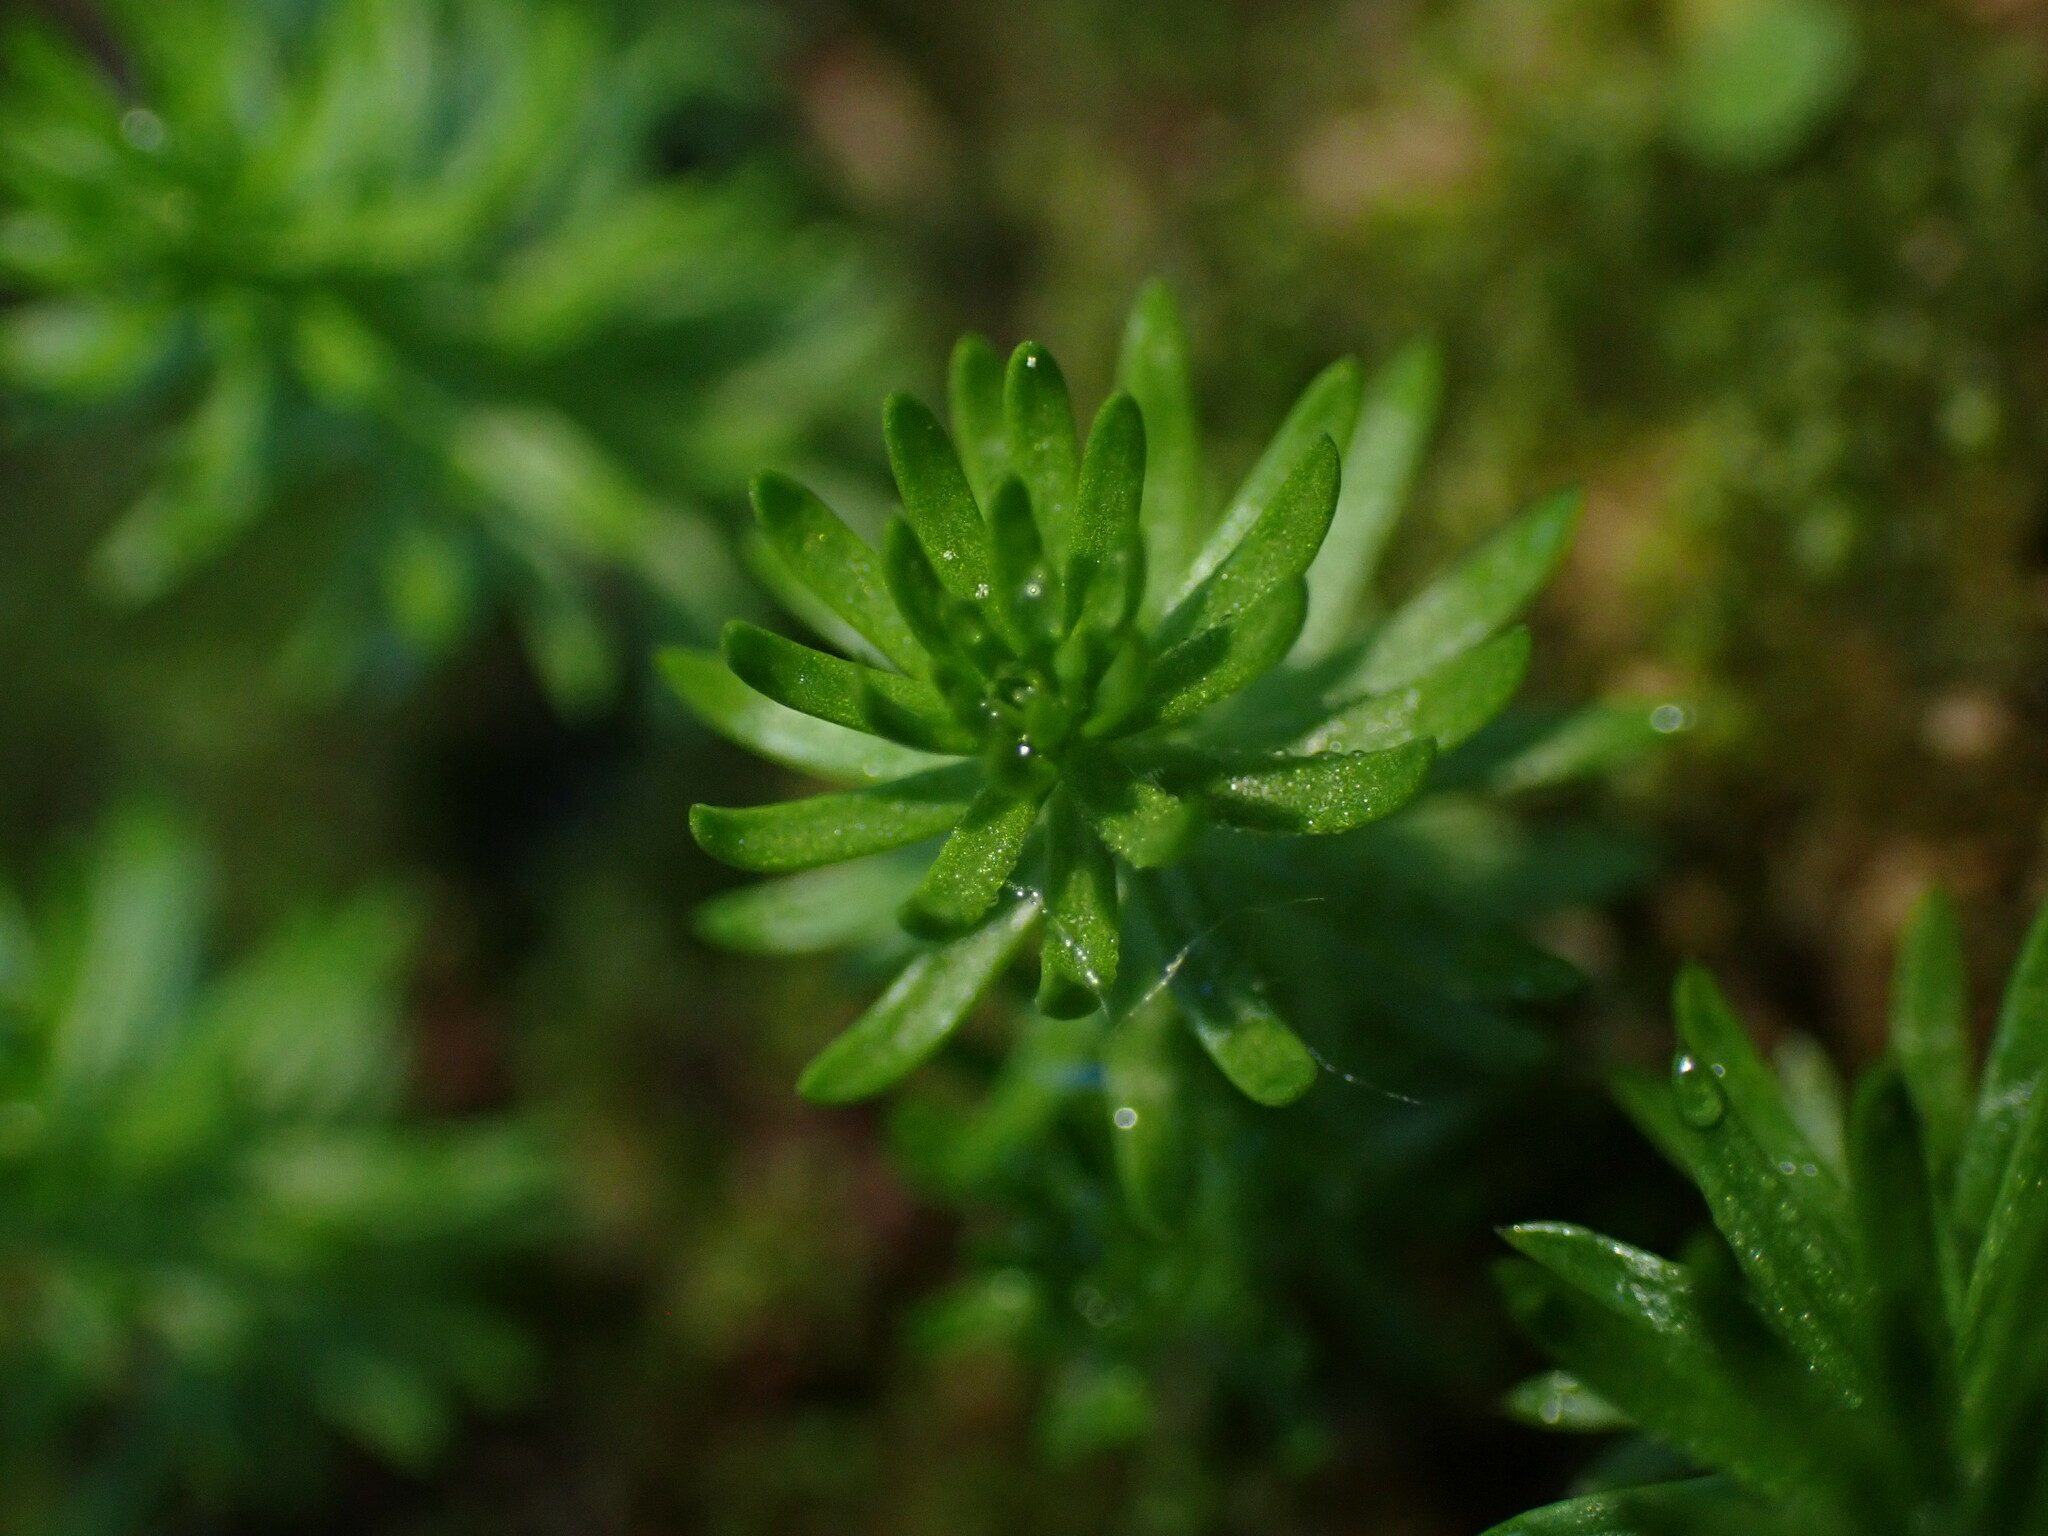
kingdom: Plantae
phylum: Tracheophyta
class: Magnoliopsida
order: Lamiales
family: Plantaginaceae
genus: Hippuris
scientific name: Hippuris montana
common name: Mountain mare's-tail
